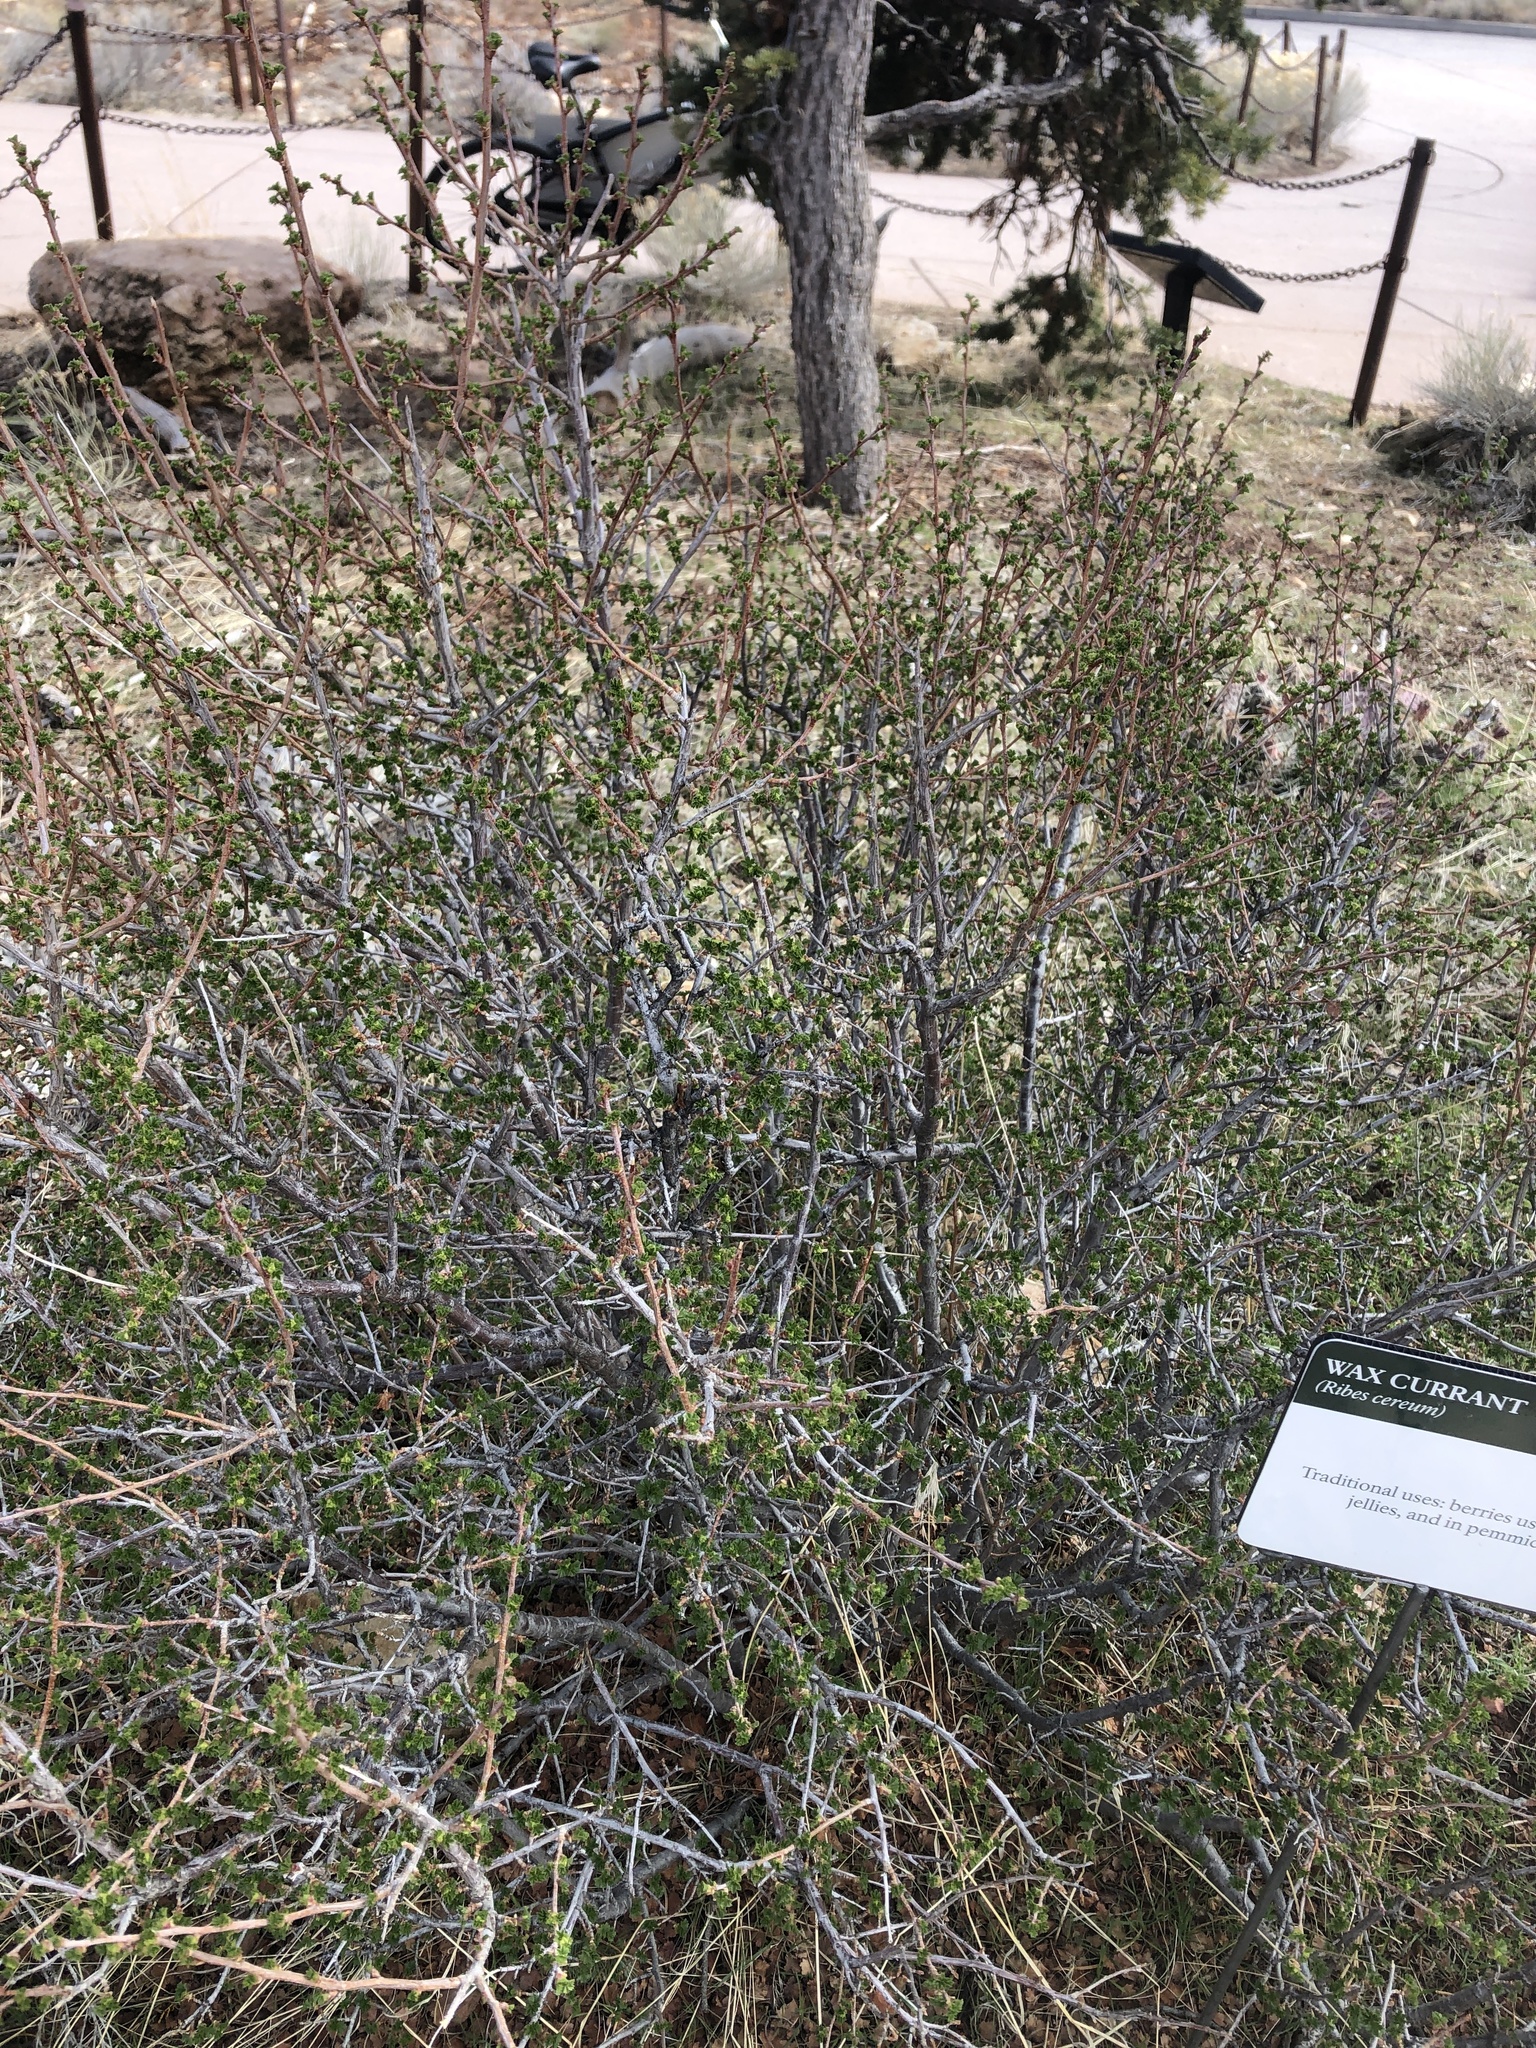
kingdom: Plantae
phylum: Tracheophyta
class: Magnoliopsida
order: Saxifragales
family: Grossulariaceae
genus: Ribes
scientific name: Ribes cereum
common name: Wax currant
